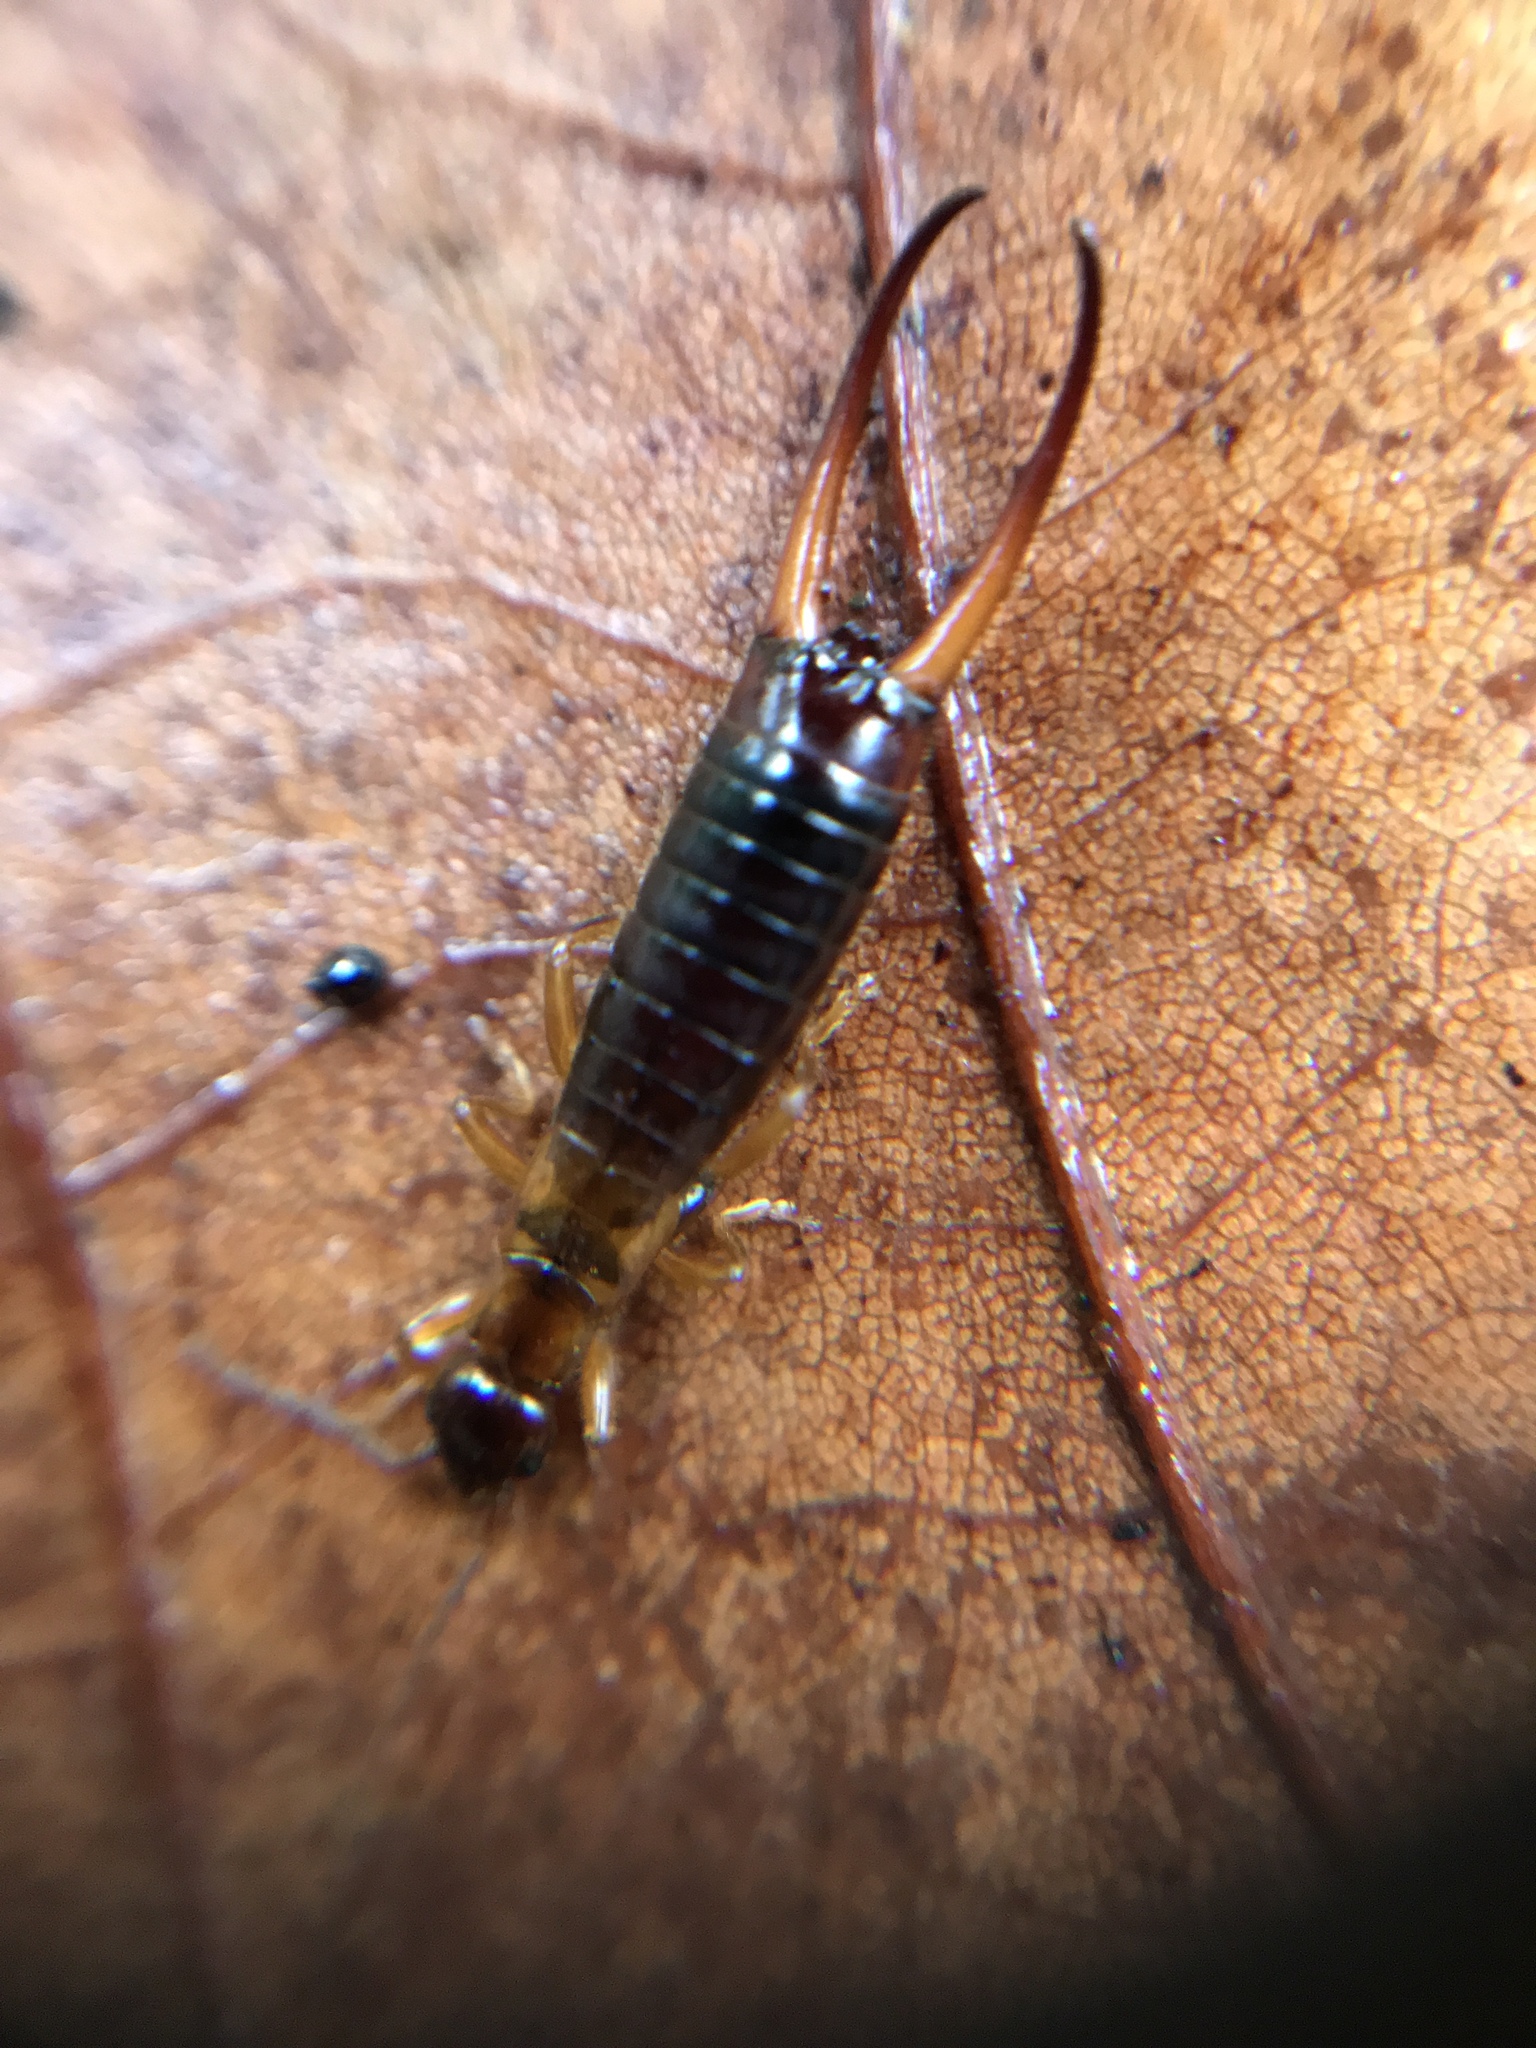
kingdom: Animalia
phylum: Arthropoda
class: Insecta
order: Dermaptera
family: Forficulidae
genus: Forficula
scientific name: Forficula
